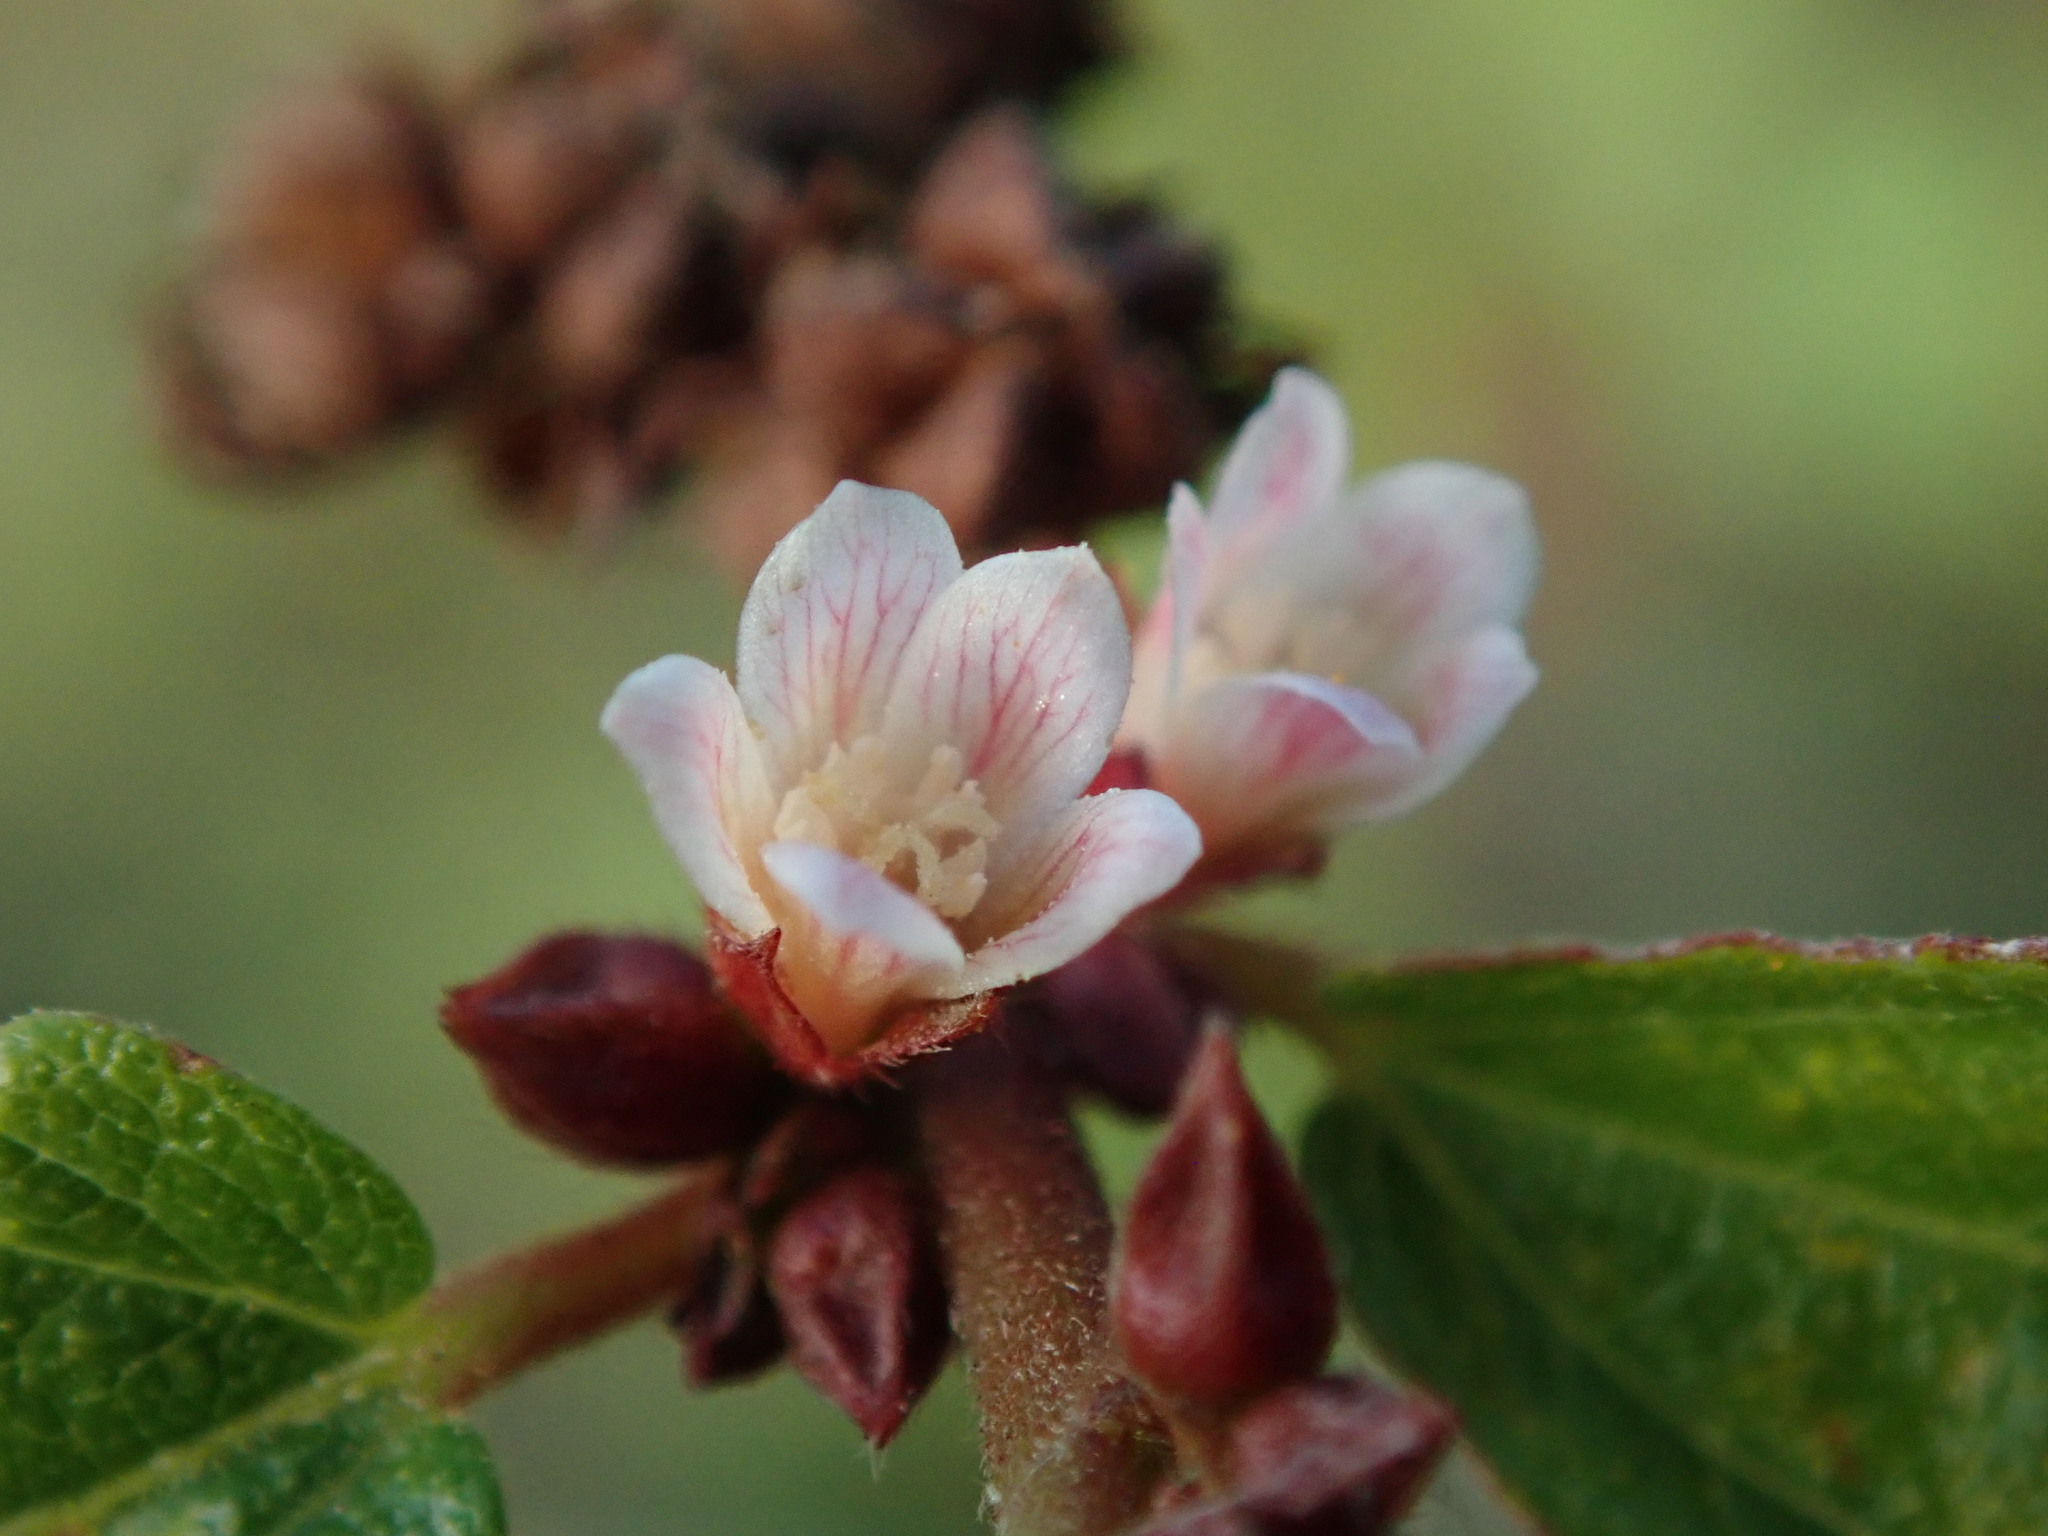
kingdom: Plantae
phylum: Tracheophyta
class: Magnoliopsida
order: Malvales
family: Malvaceae
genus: Melochia
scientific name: Melochia nodiflora
